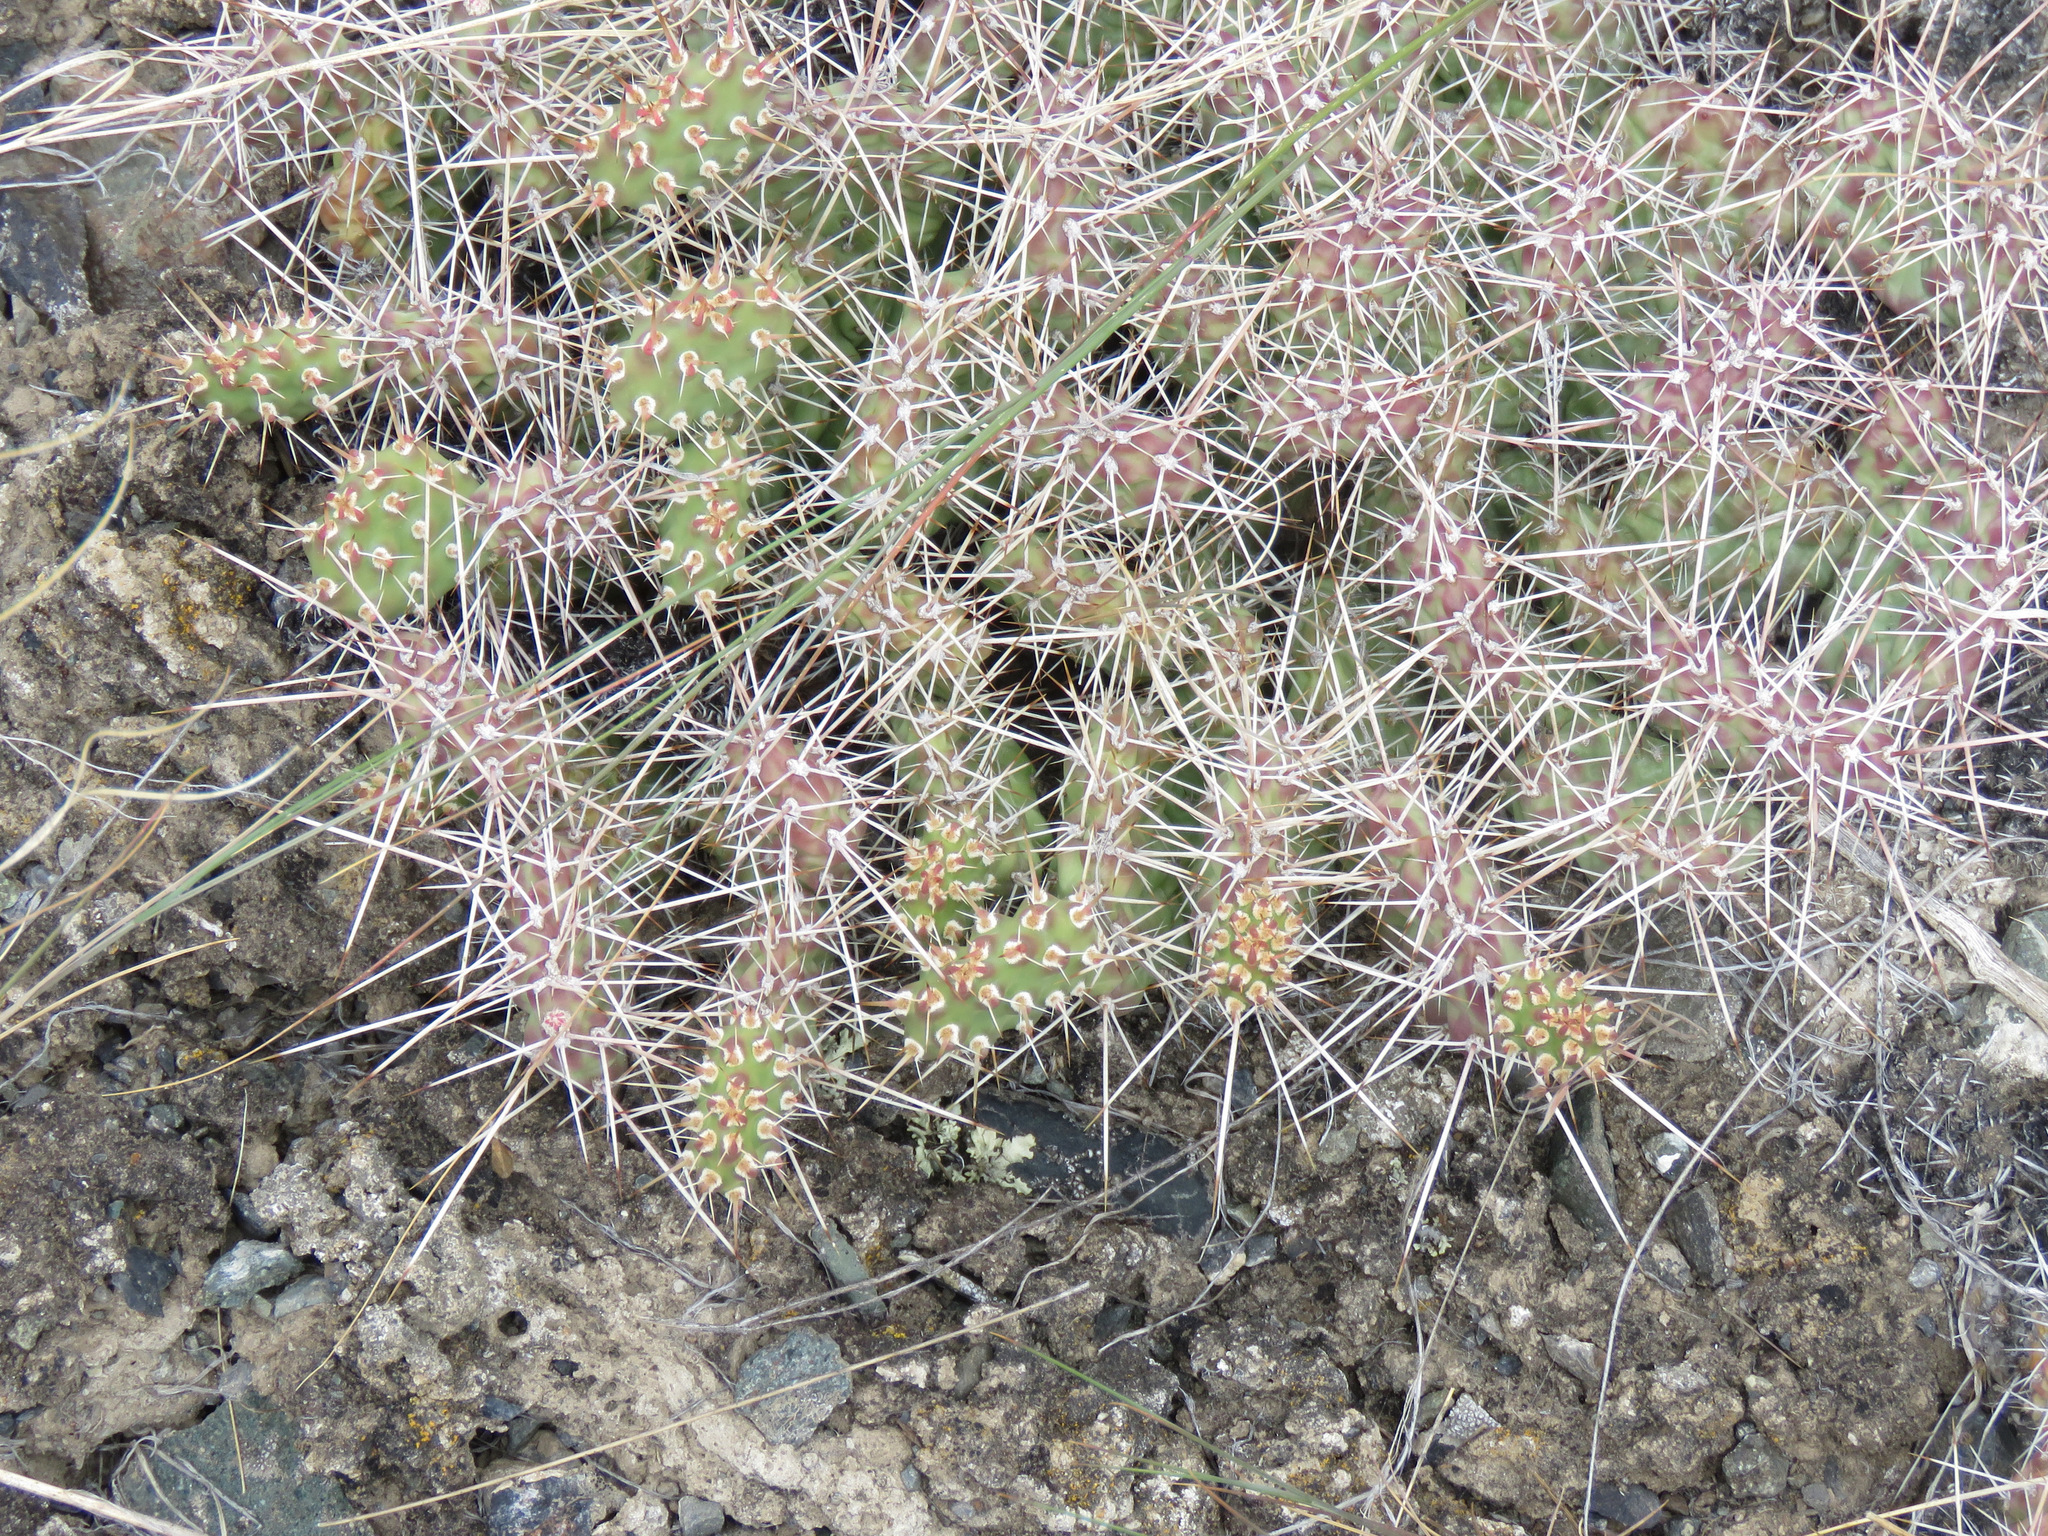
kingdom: Plantae
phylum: Tracheophyta
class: Magnoliopsida
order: Caryophyllales
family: Cactaceae
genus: Opuntia
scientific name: Opuntia fragilis
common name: Brittle cactus
